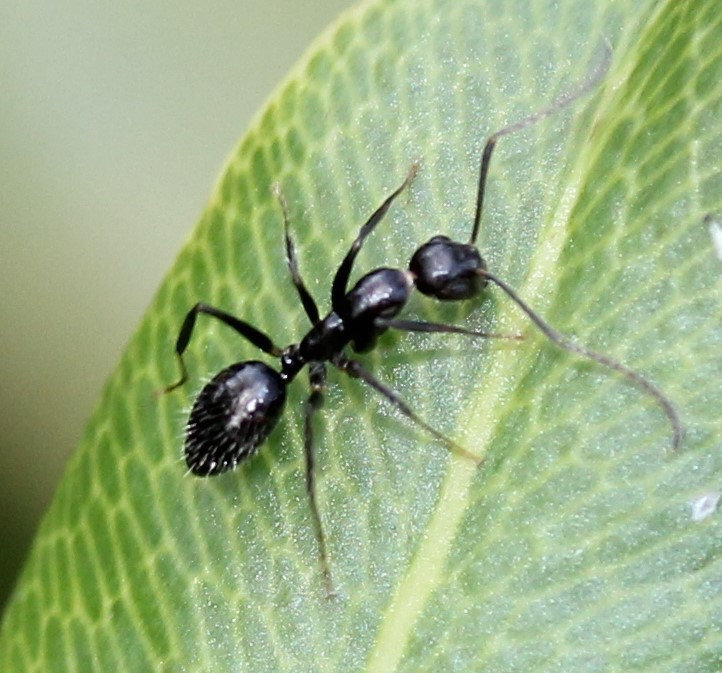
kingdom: Animalia
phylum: Arthropoda
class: Insecta
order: Hymenoptera
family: Formicidae
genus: Camponotus
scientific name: Camponotus sexguttatus
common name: Neotropical carpenter ant
